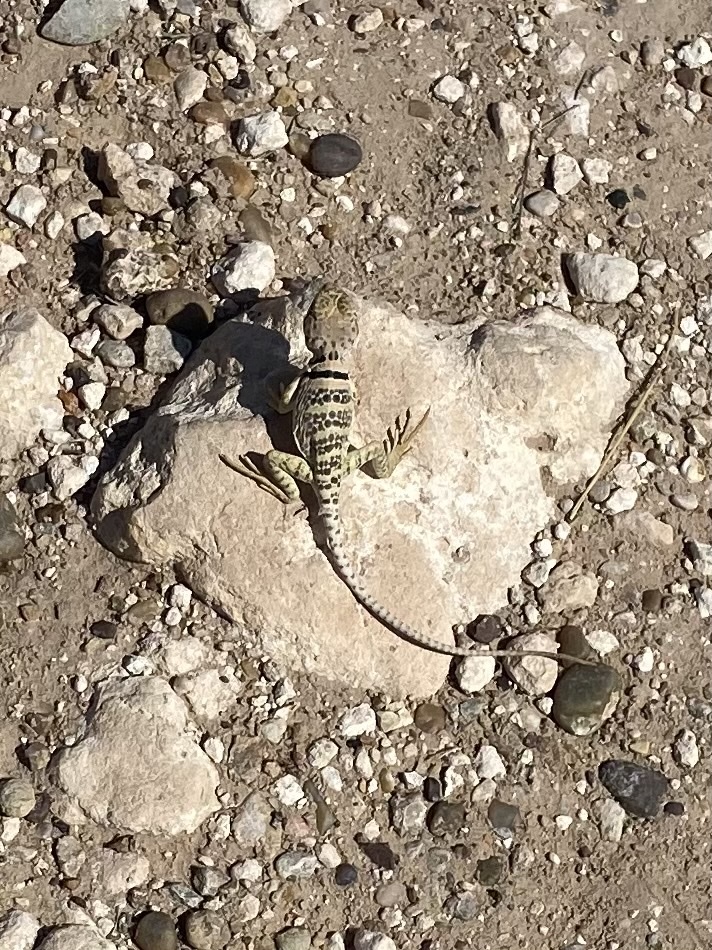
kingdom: Animalia
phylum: Chordata
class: Squamata
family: Crotaphytidae
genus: Crotaphytus
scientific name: Crotaphytus collaris
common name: Collared lizard
